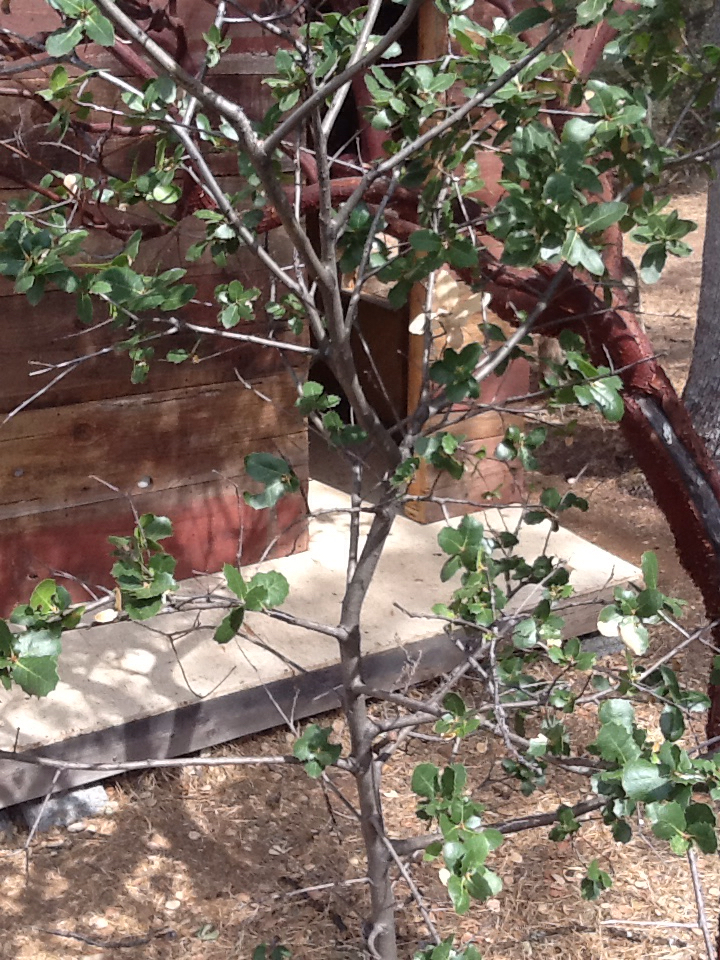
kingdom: Plantae
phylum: Tracheophyta
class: Magnoliopsida
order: Fagales
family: Fagaceae
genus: Quercus
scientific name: Quercus wislizeni
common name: Interior live oak
